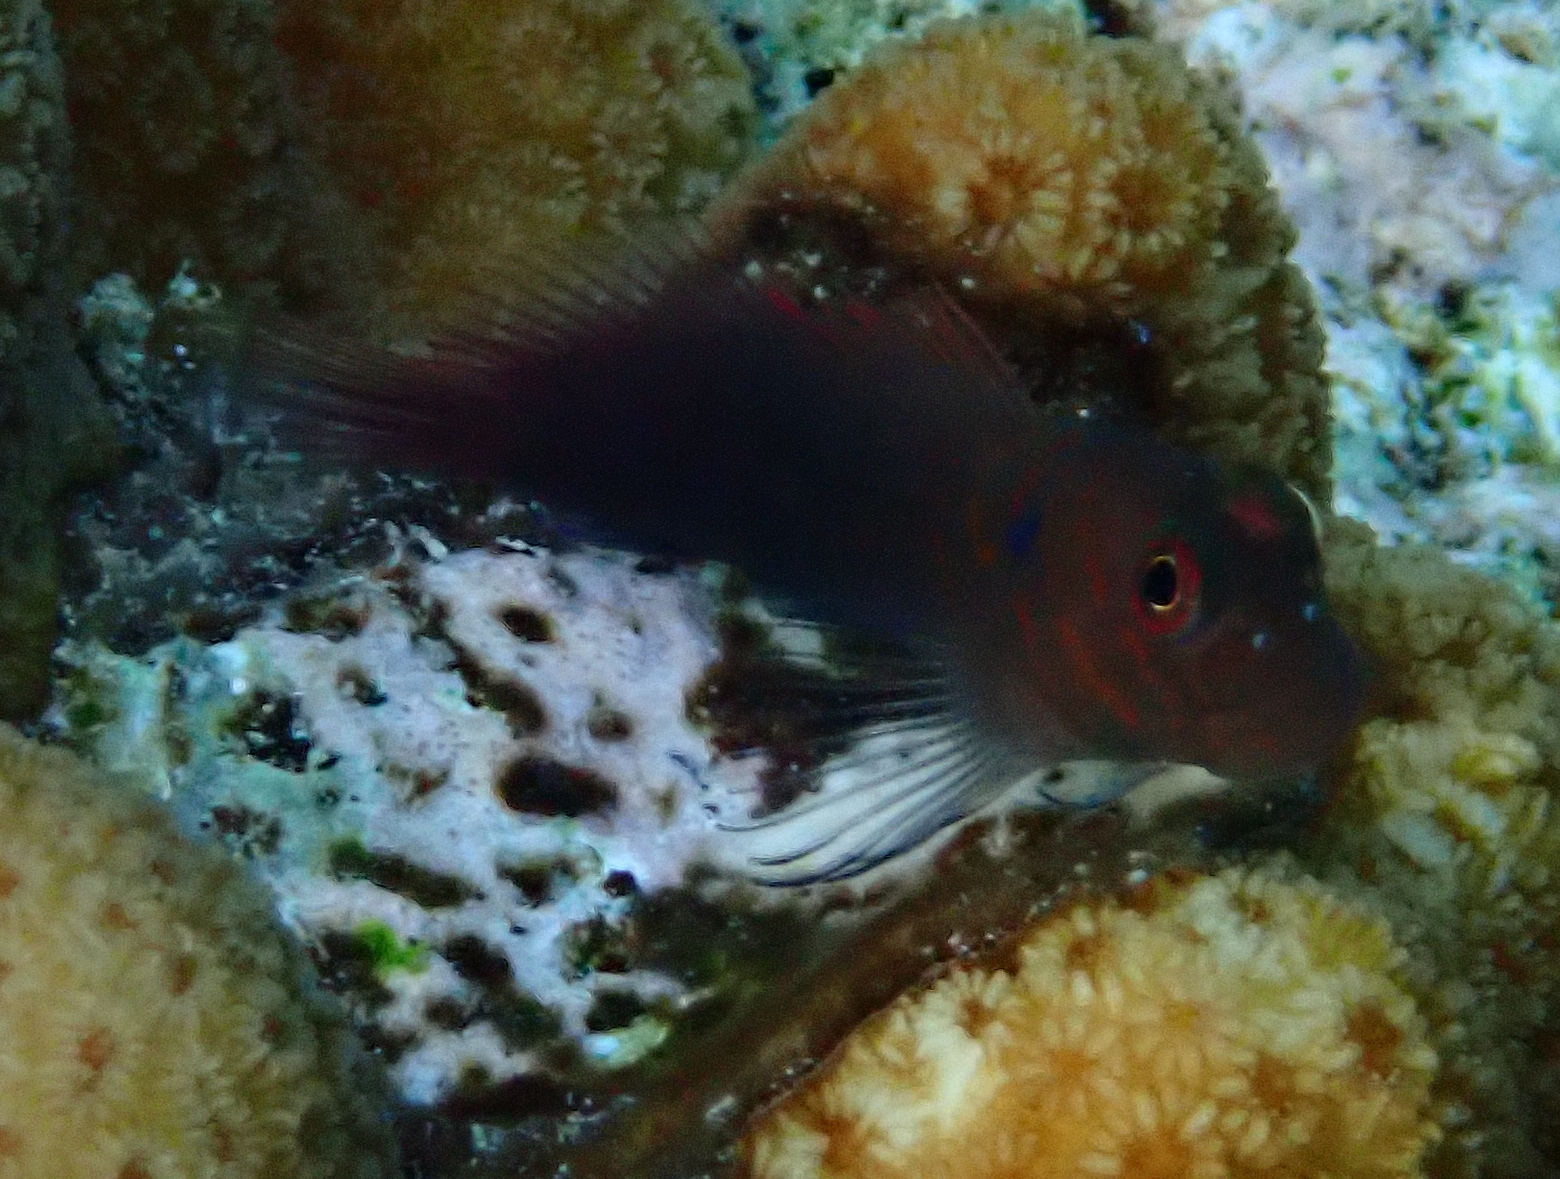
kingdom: Animalia
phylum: Chordata
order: Perciformes
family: Blenniidae
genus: Cirripectes
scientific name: Cirripectes castaneus
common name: Chestnut blenny
